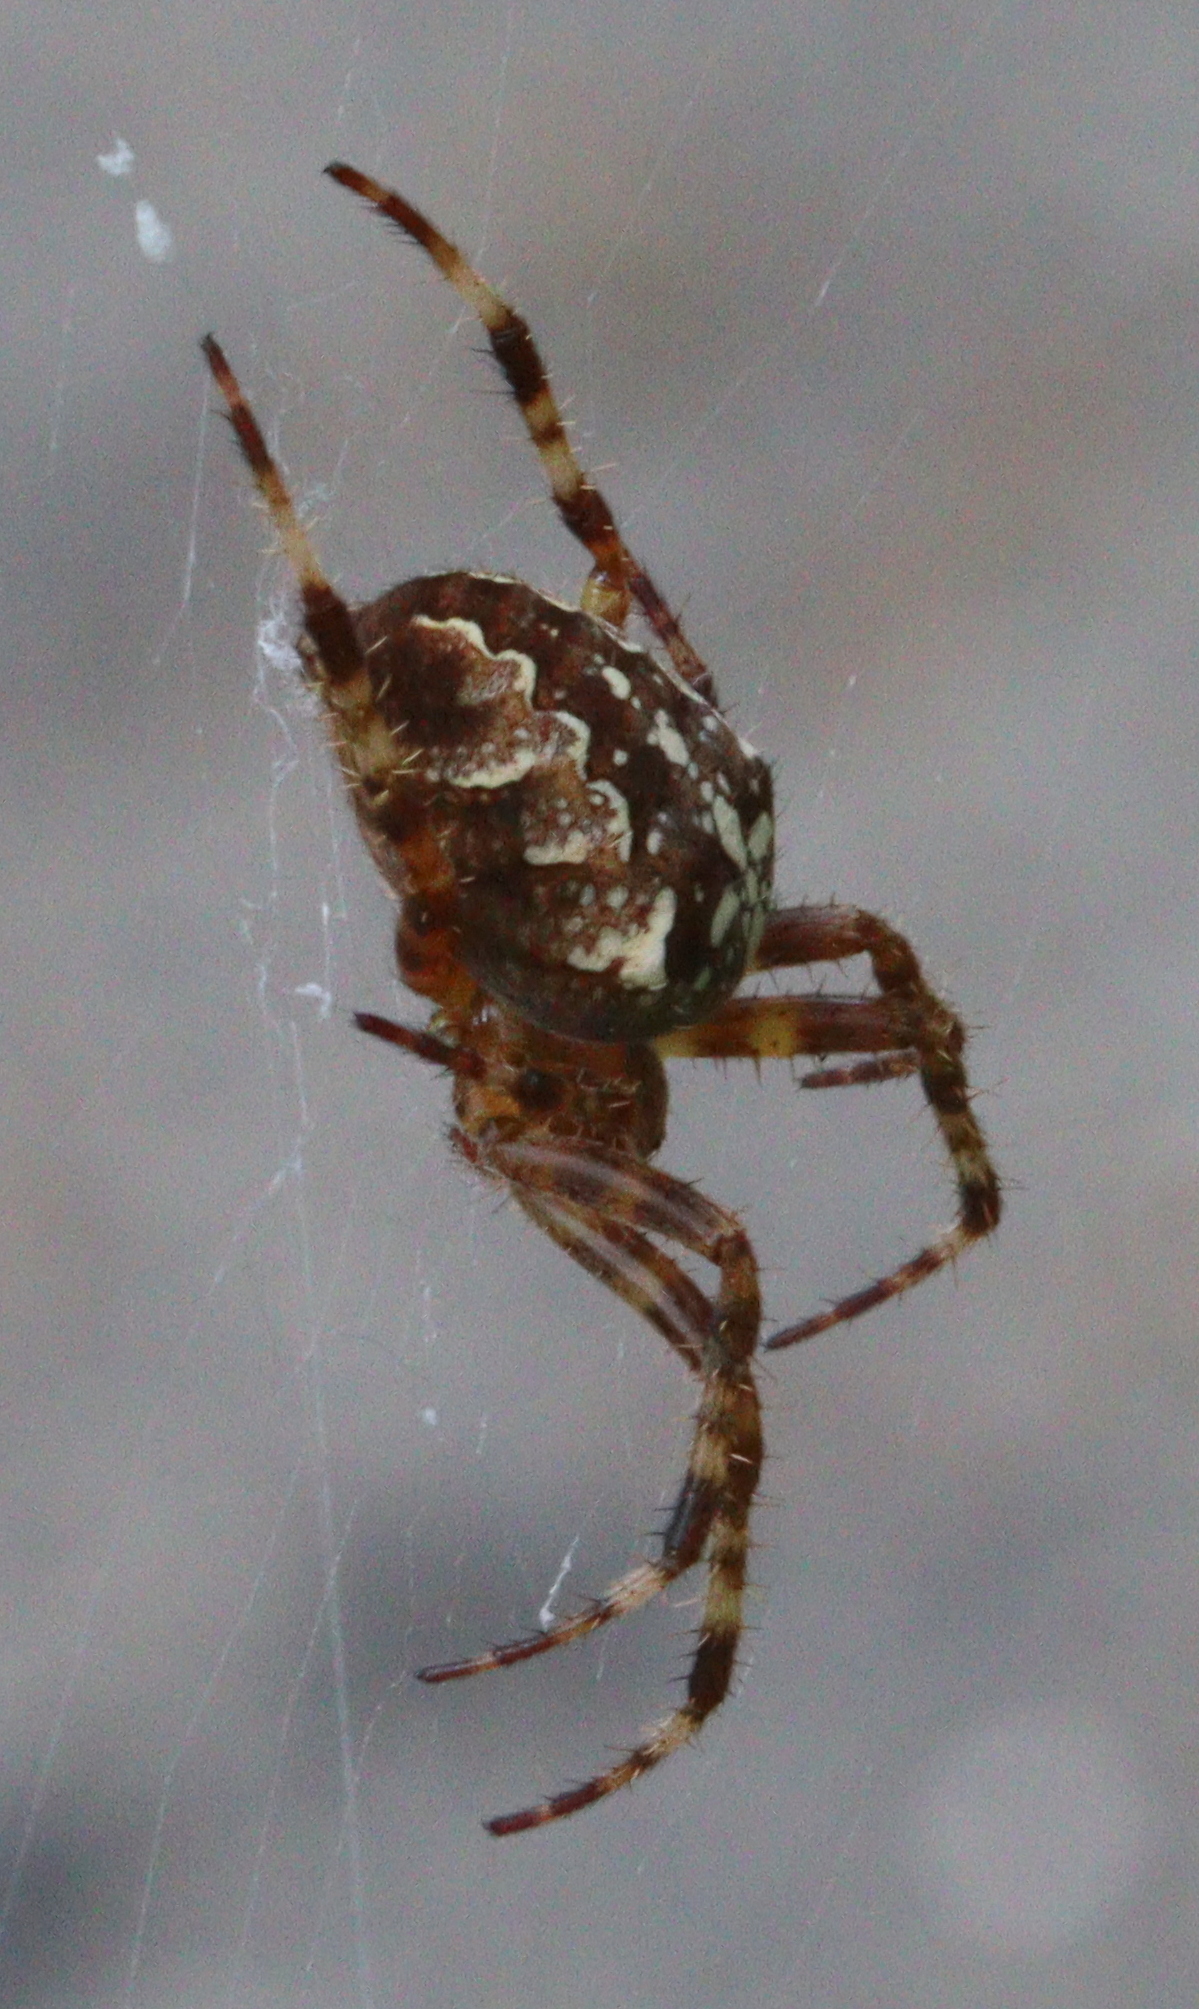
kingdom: Animalia
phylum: Arthropoda
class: Arachnida
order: Araneae
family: Araneidae
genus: Araneus
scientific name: Araneus diadematus
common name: Cross orbweaver
